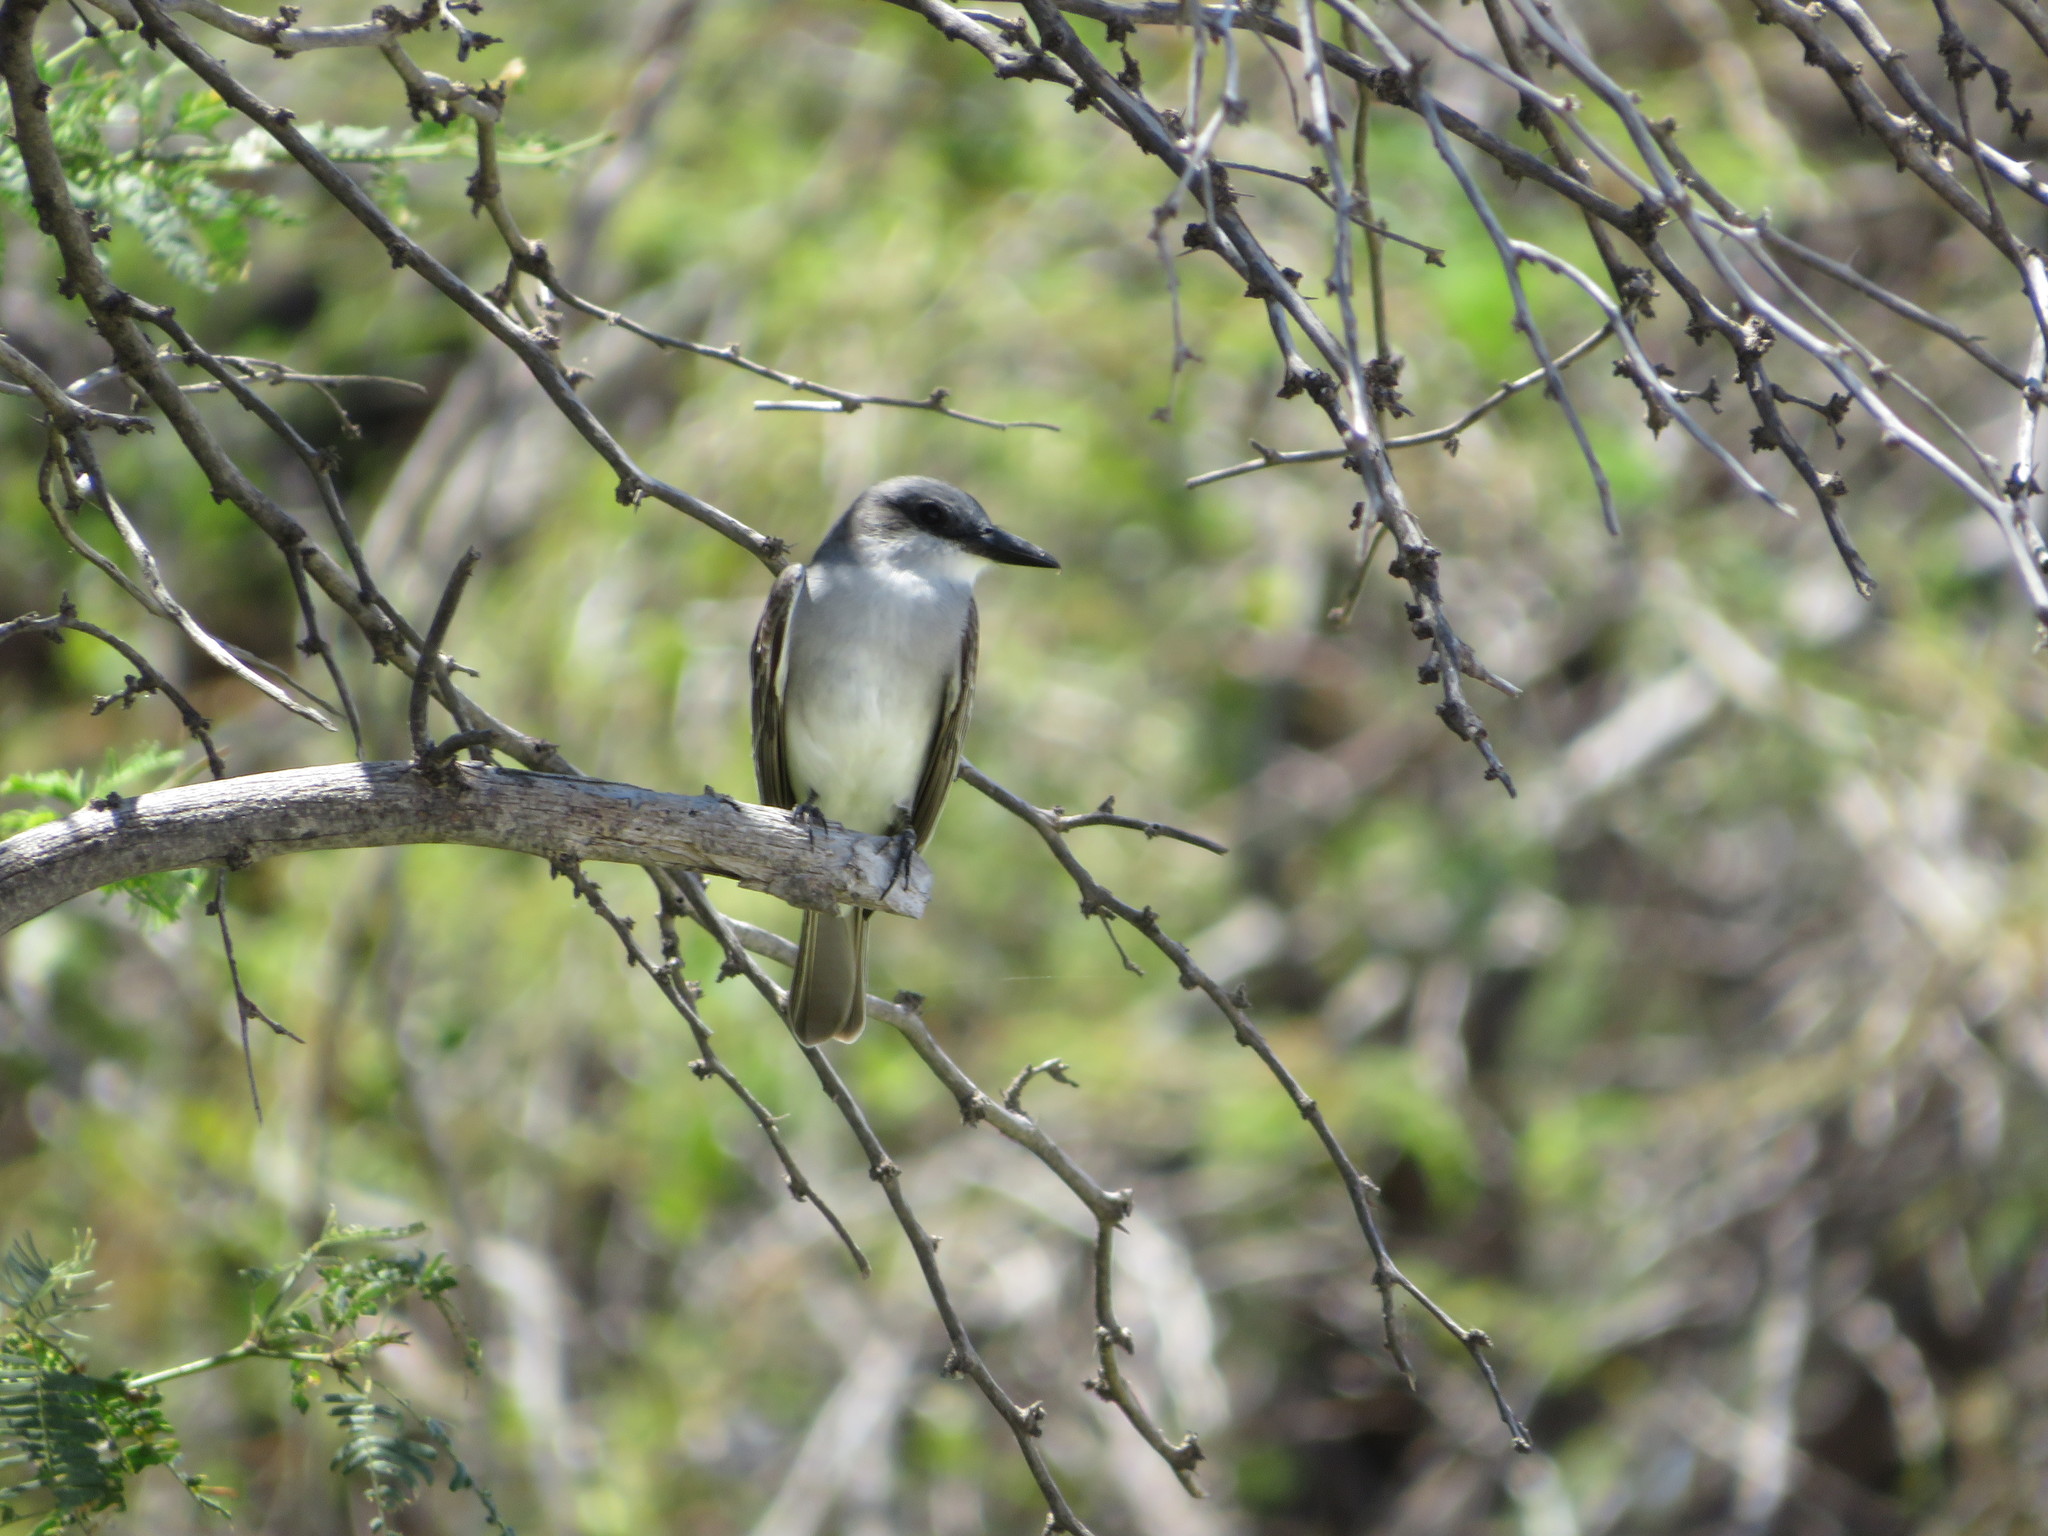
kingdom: Animalia
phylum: Chordata
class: Aves
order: Passeriformes
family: Tyrannidae
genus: Tyrannus
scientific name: Tyrannus dominicensis
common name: Gray kingbird
